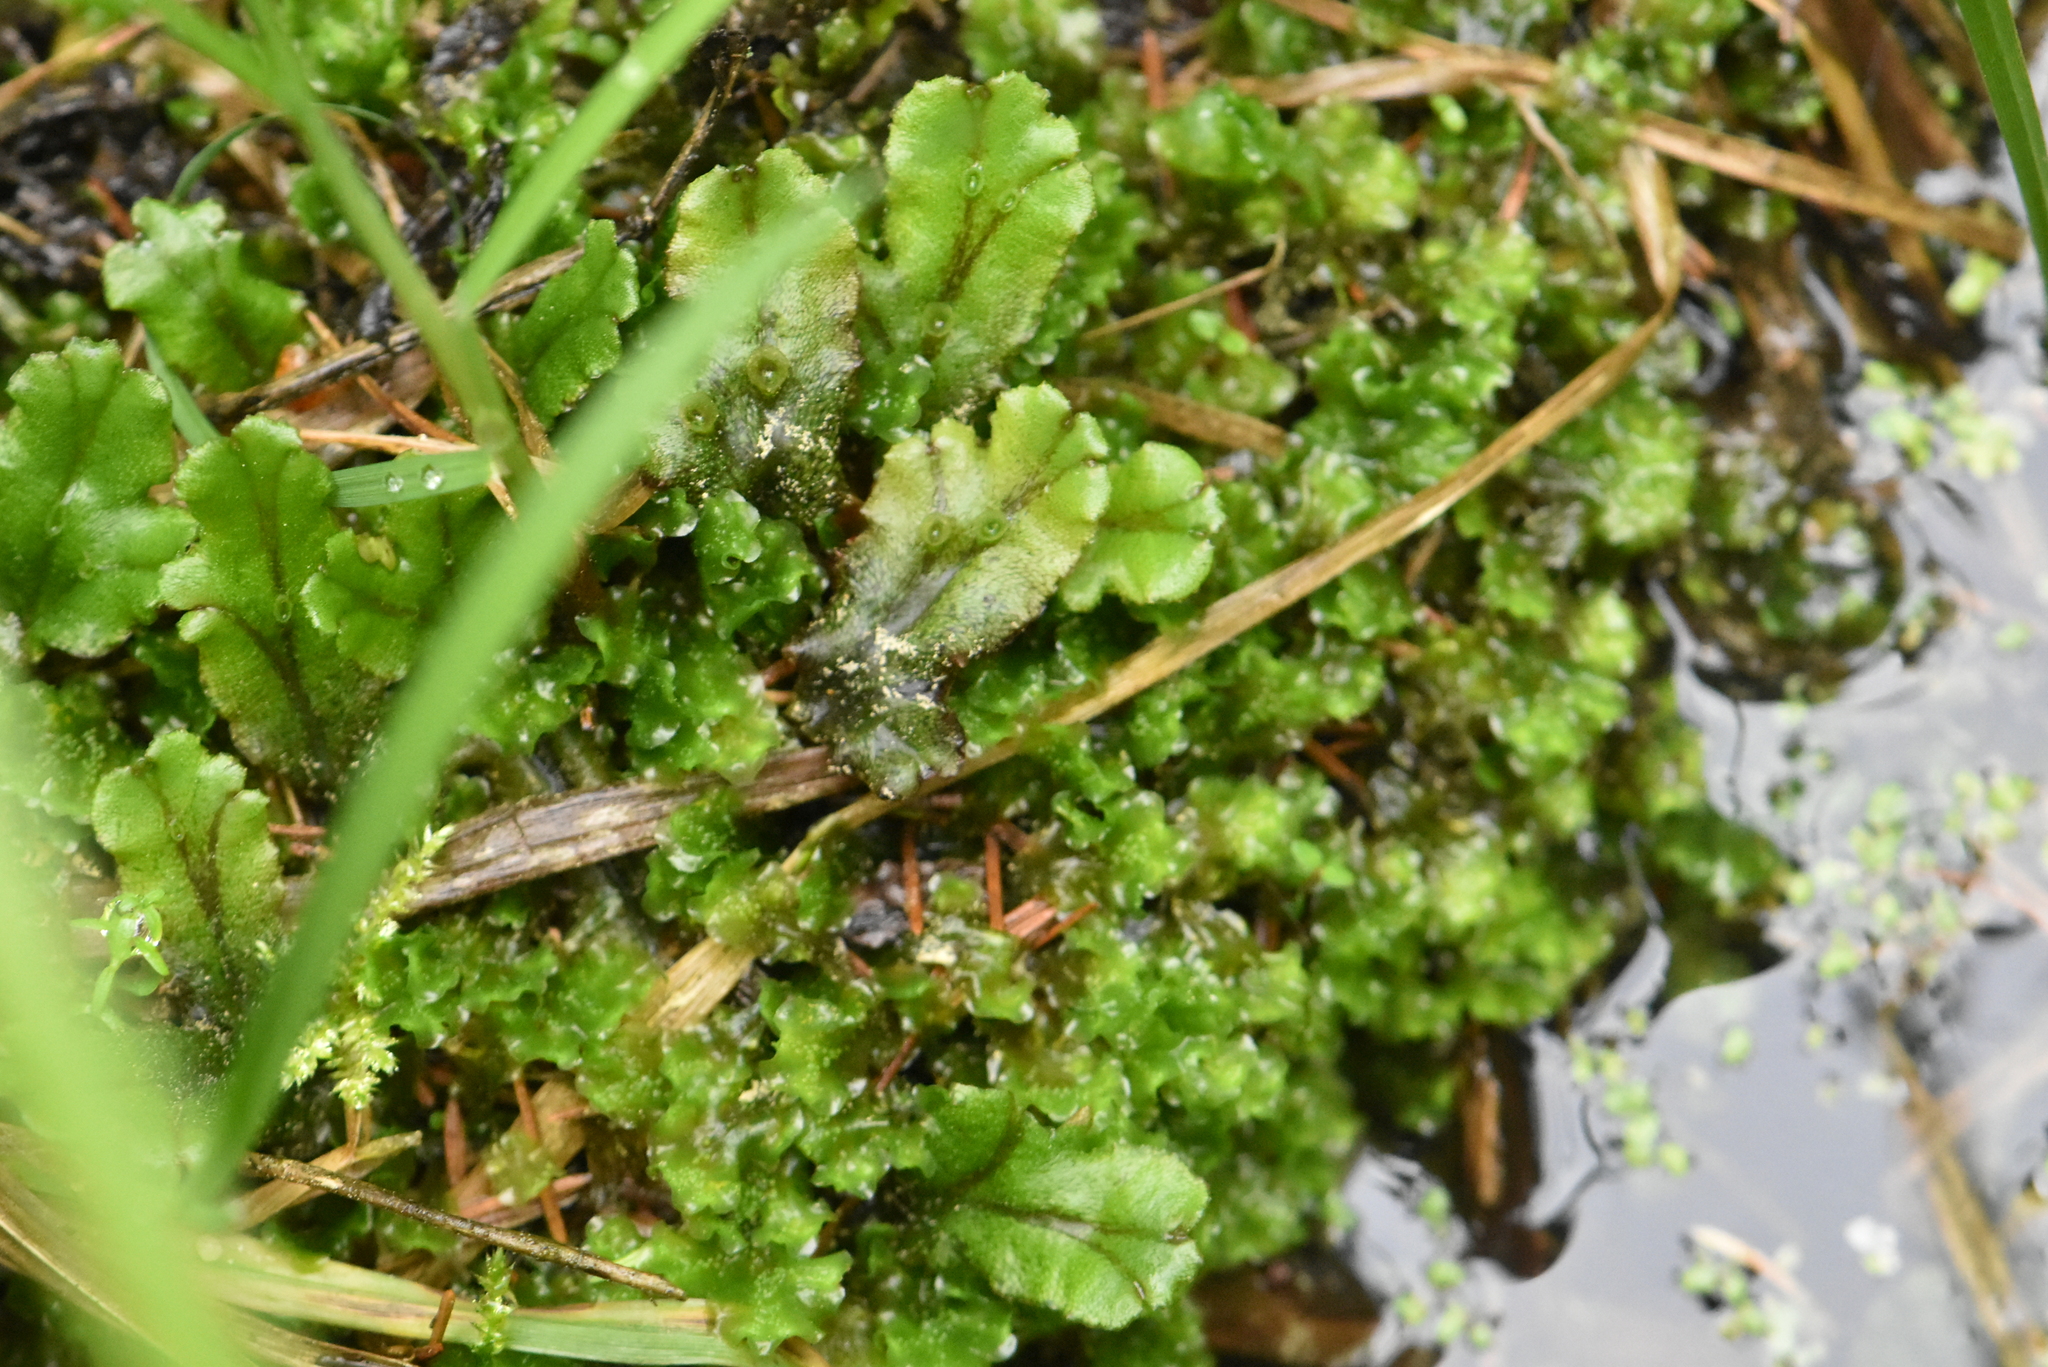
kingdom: Plantae
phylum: Marchantiophyta
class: Marchantiopsida
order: Marchantiales
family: Marchantiaceae
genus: Marchantia
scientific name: Marchantia polymorpha
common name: Common liverwort
